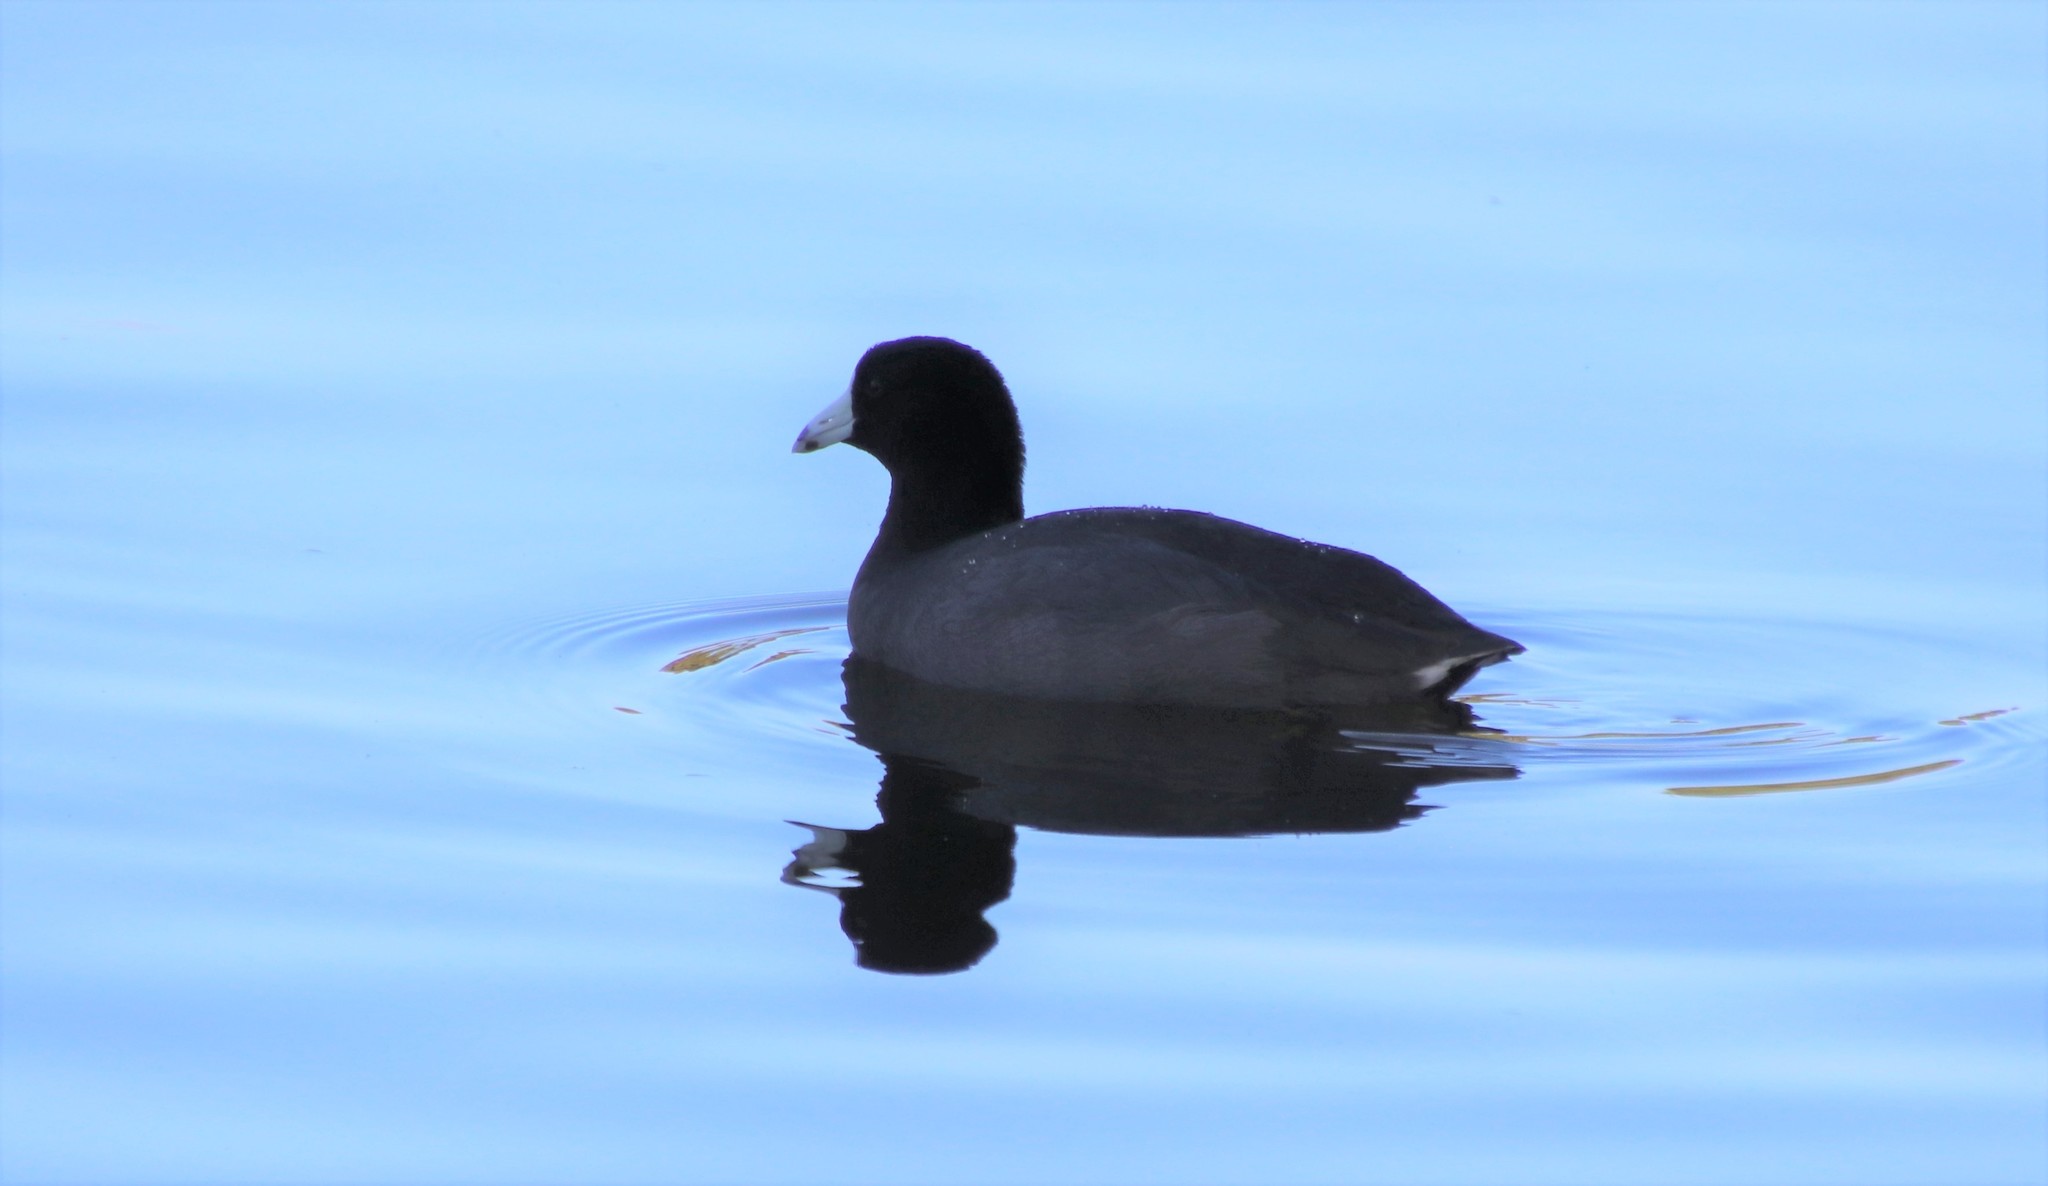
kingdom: Animalia
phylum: Chordata
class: Aves
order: Gruiformes
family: Rallidae
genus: Fulica
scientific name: Fulica americana
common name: American coot
